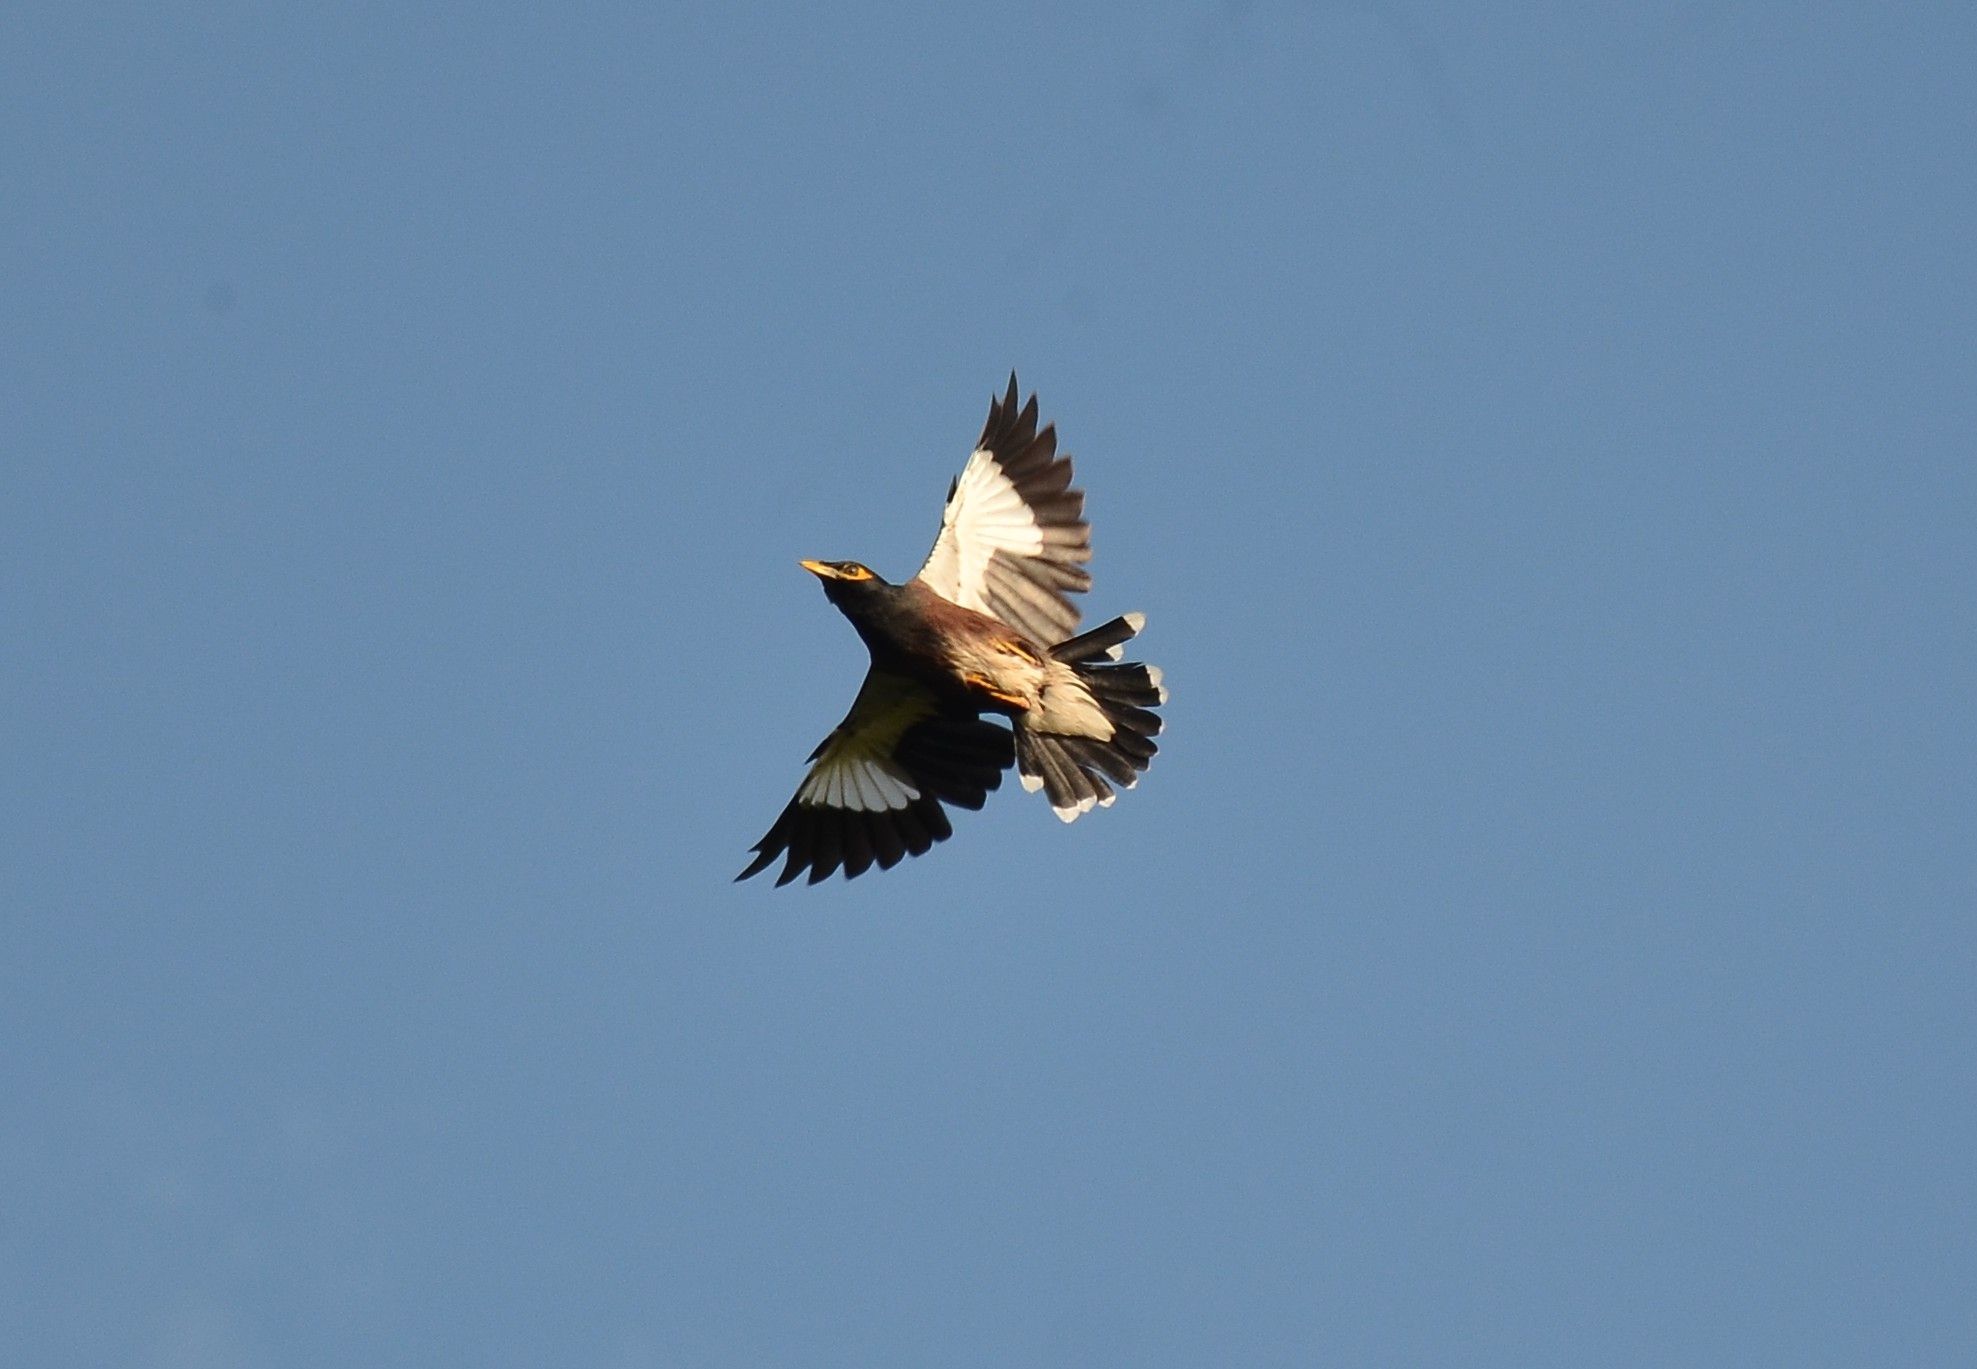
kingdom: Animalia
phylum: Chordata
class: Aves
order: Passeriformes
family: Sturnidae
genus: Acridotheres
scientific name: Acridotheres tristis
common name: Common myna
